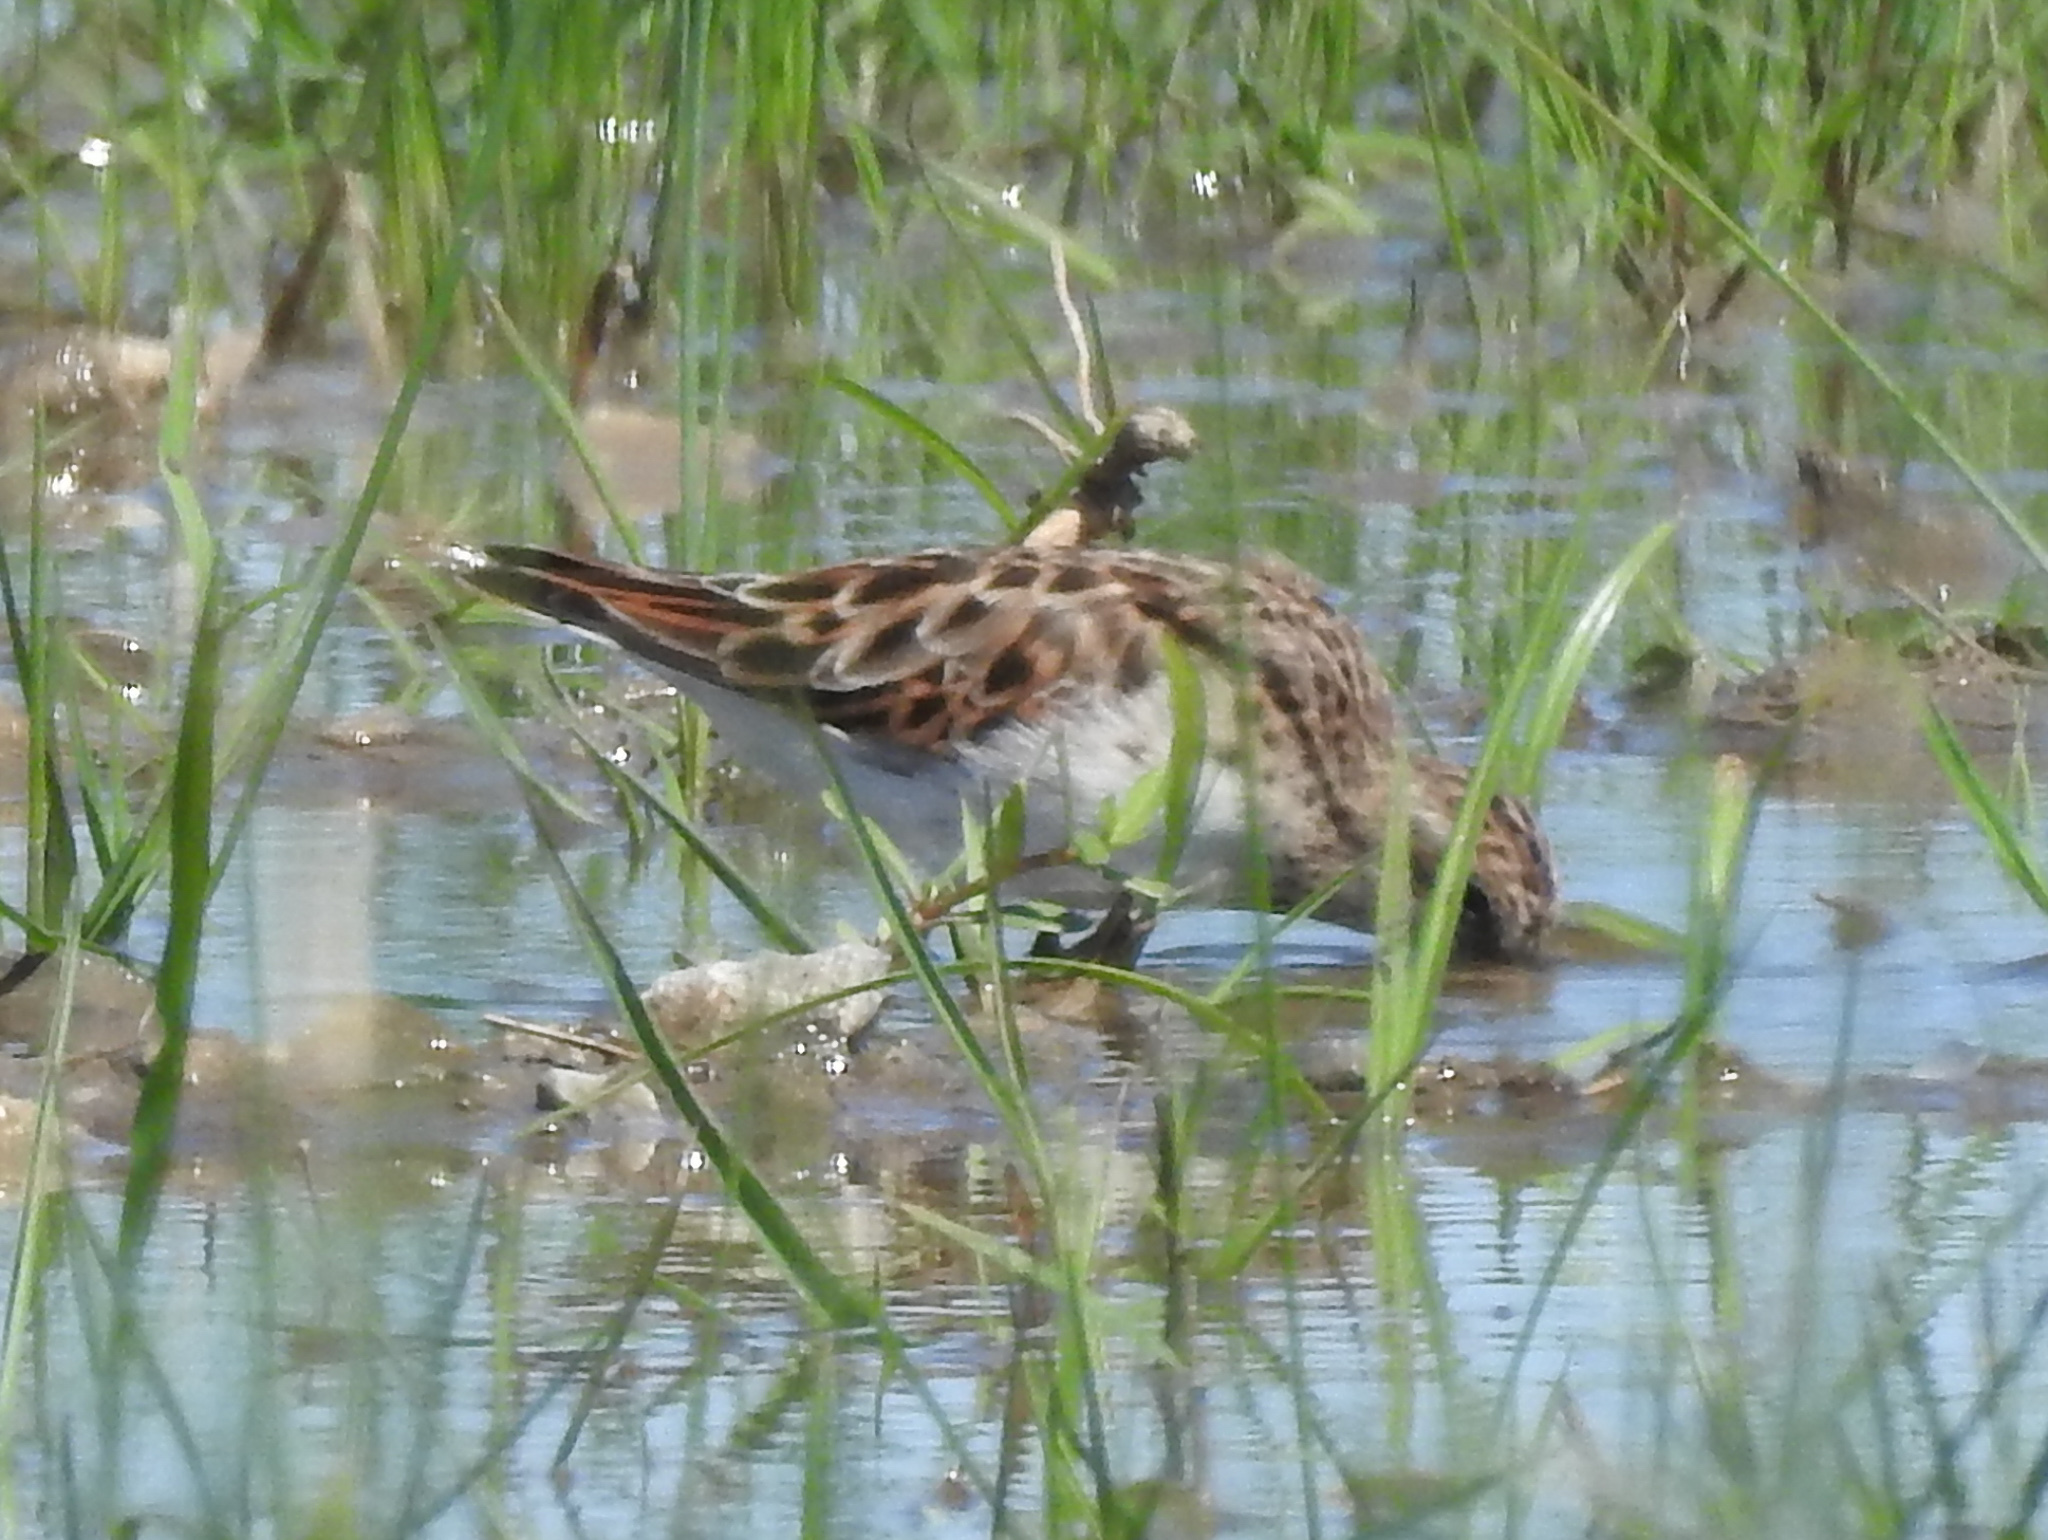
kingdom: Animalia
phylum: Chordata
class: Aves
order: Charadriiformes
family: Scolopacidae
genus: Calidris
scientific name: Calidris minutilla
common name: Least sandpiper
